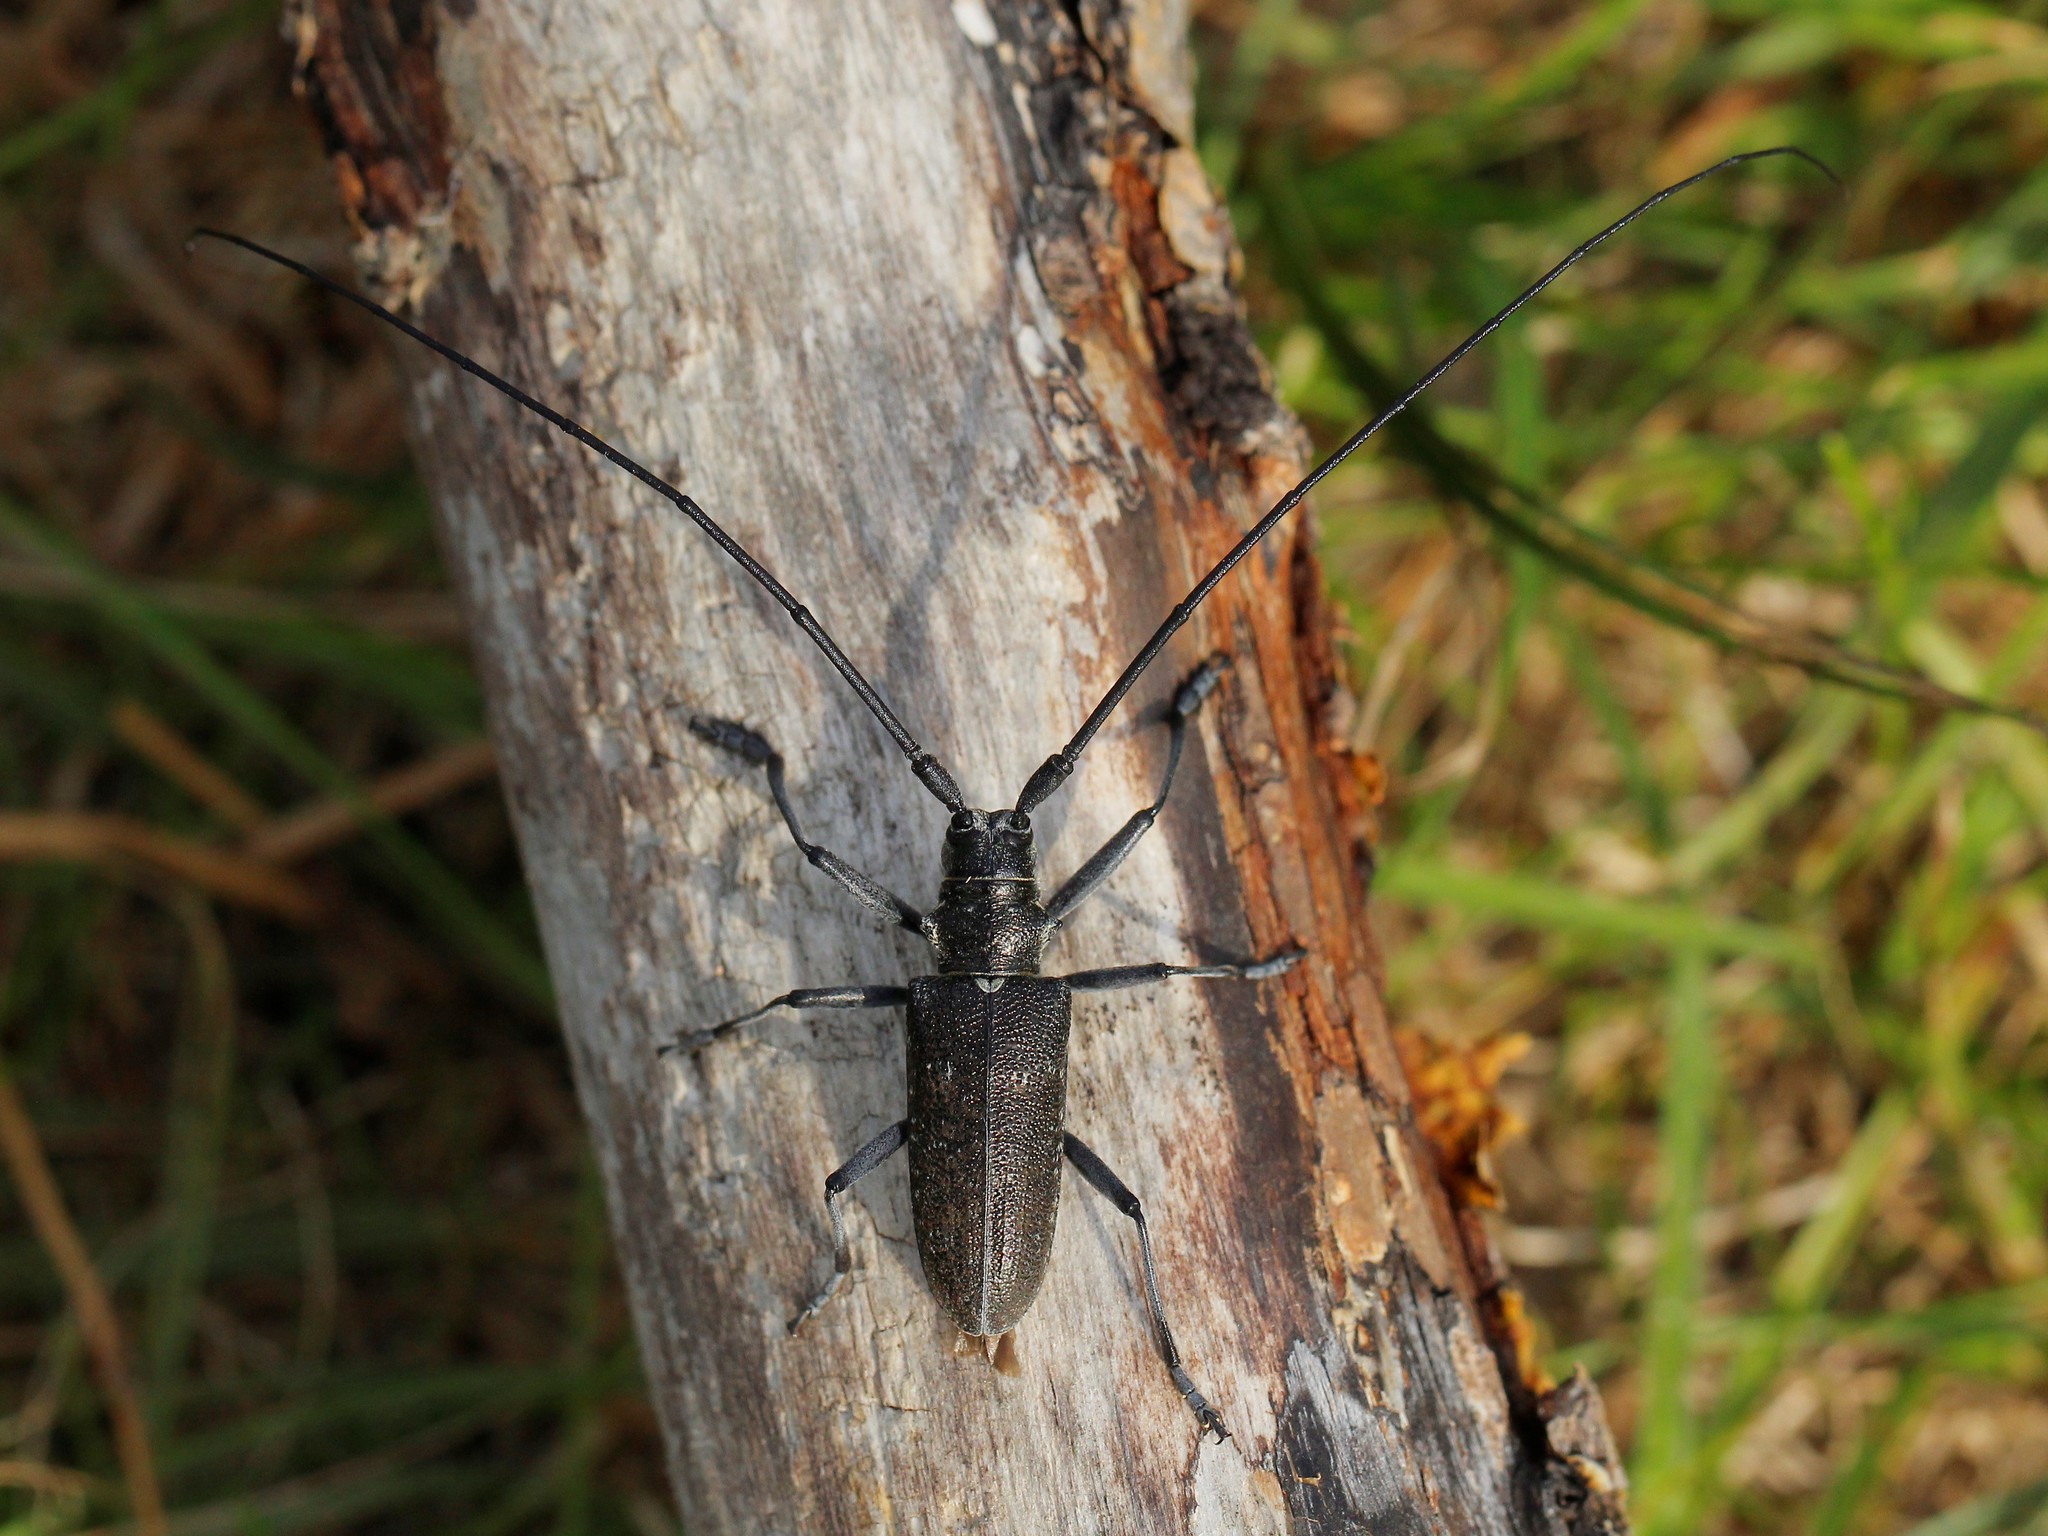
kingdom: Animalia
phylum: Arthropoda
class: Insecta
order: Coleoptera
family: Cerambycidae
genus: Monochamus
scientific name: Monochamus sutor
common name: Pine sawyer
